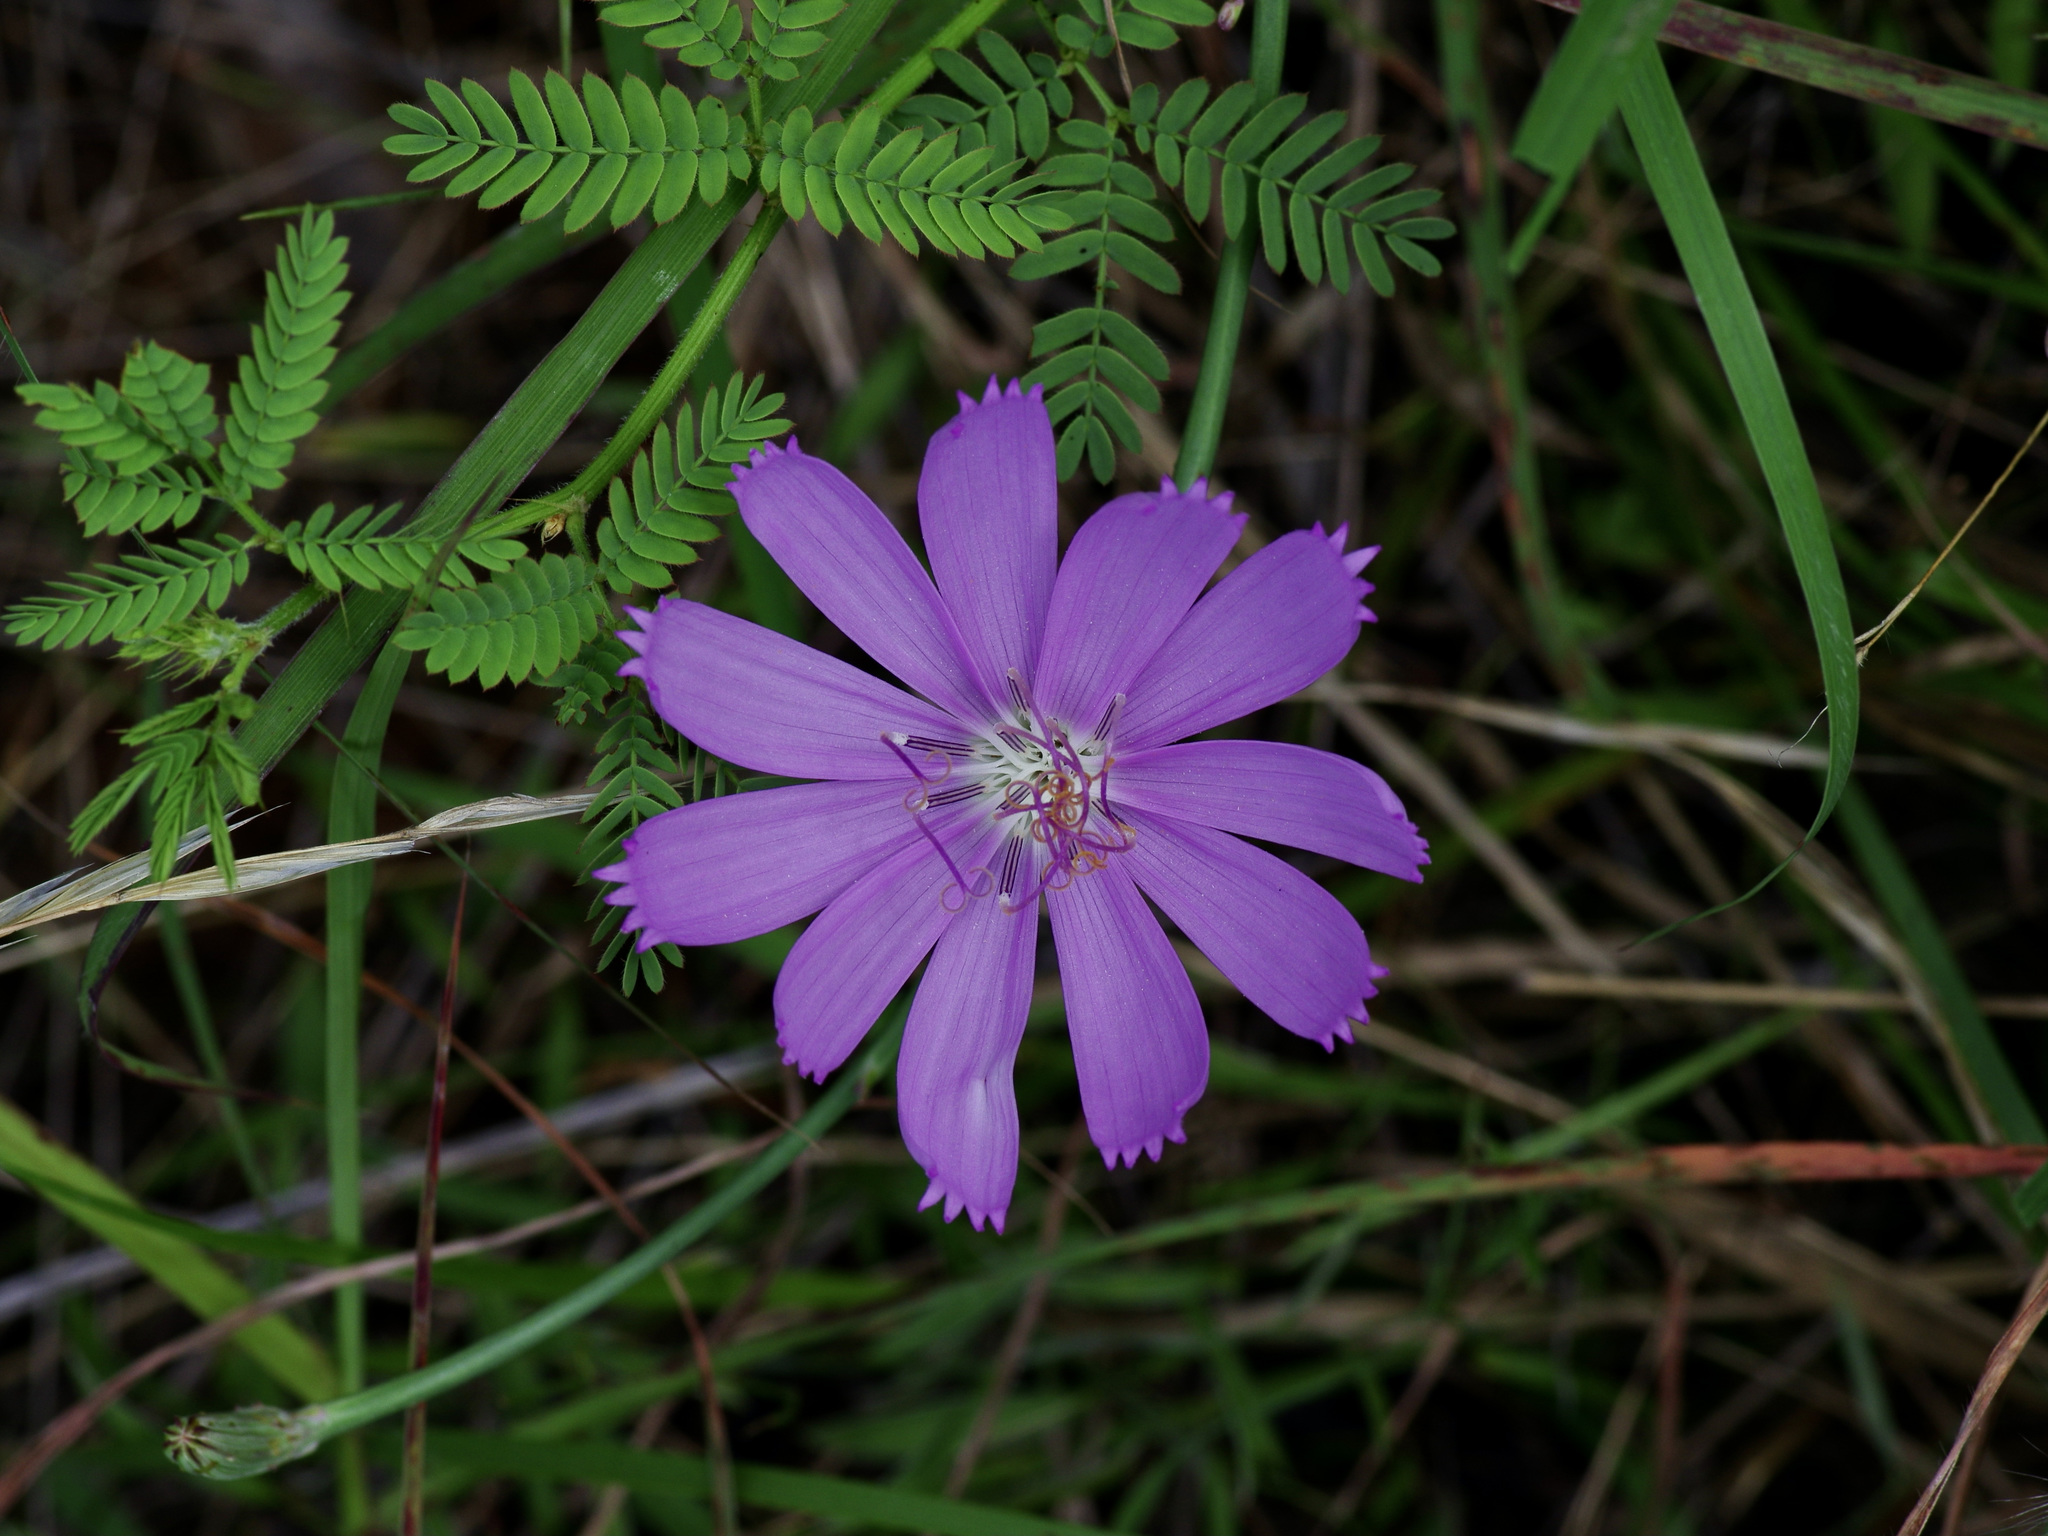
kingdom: Plantae
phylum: Tracheophyta
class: Magnoliopsida
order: Asterales
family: Asteraceae
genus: Lygodesmia
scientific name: Lygodesmia texana
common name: Texas skeleton-plant
